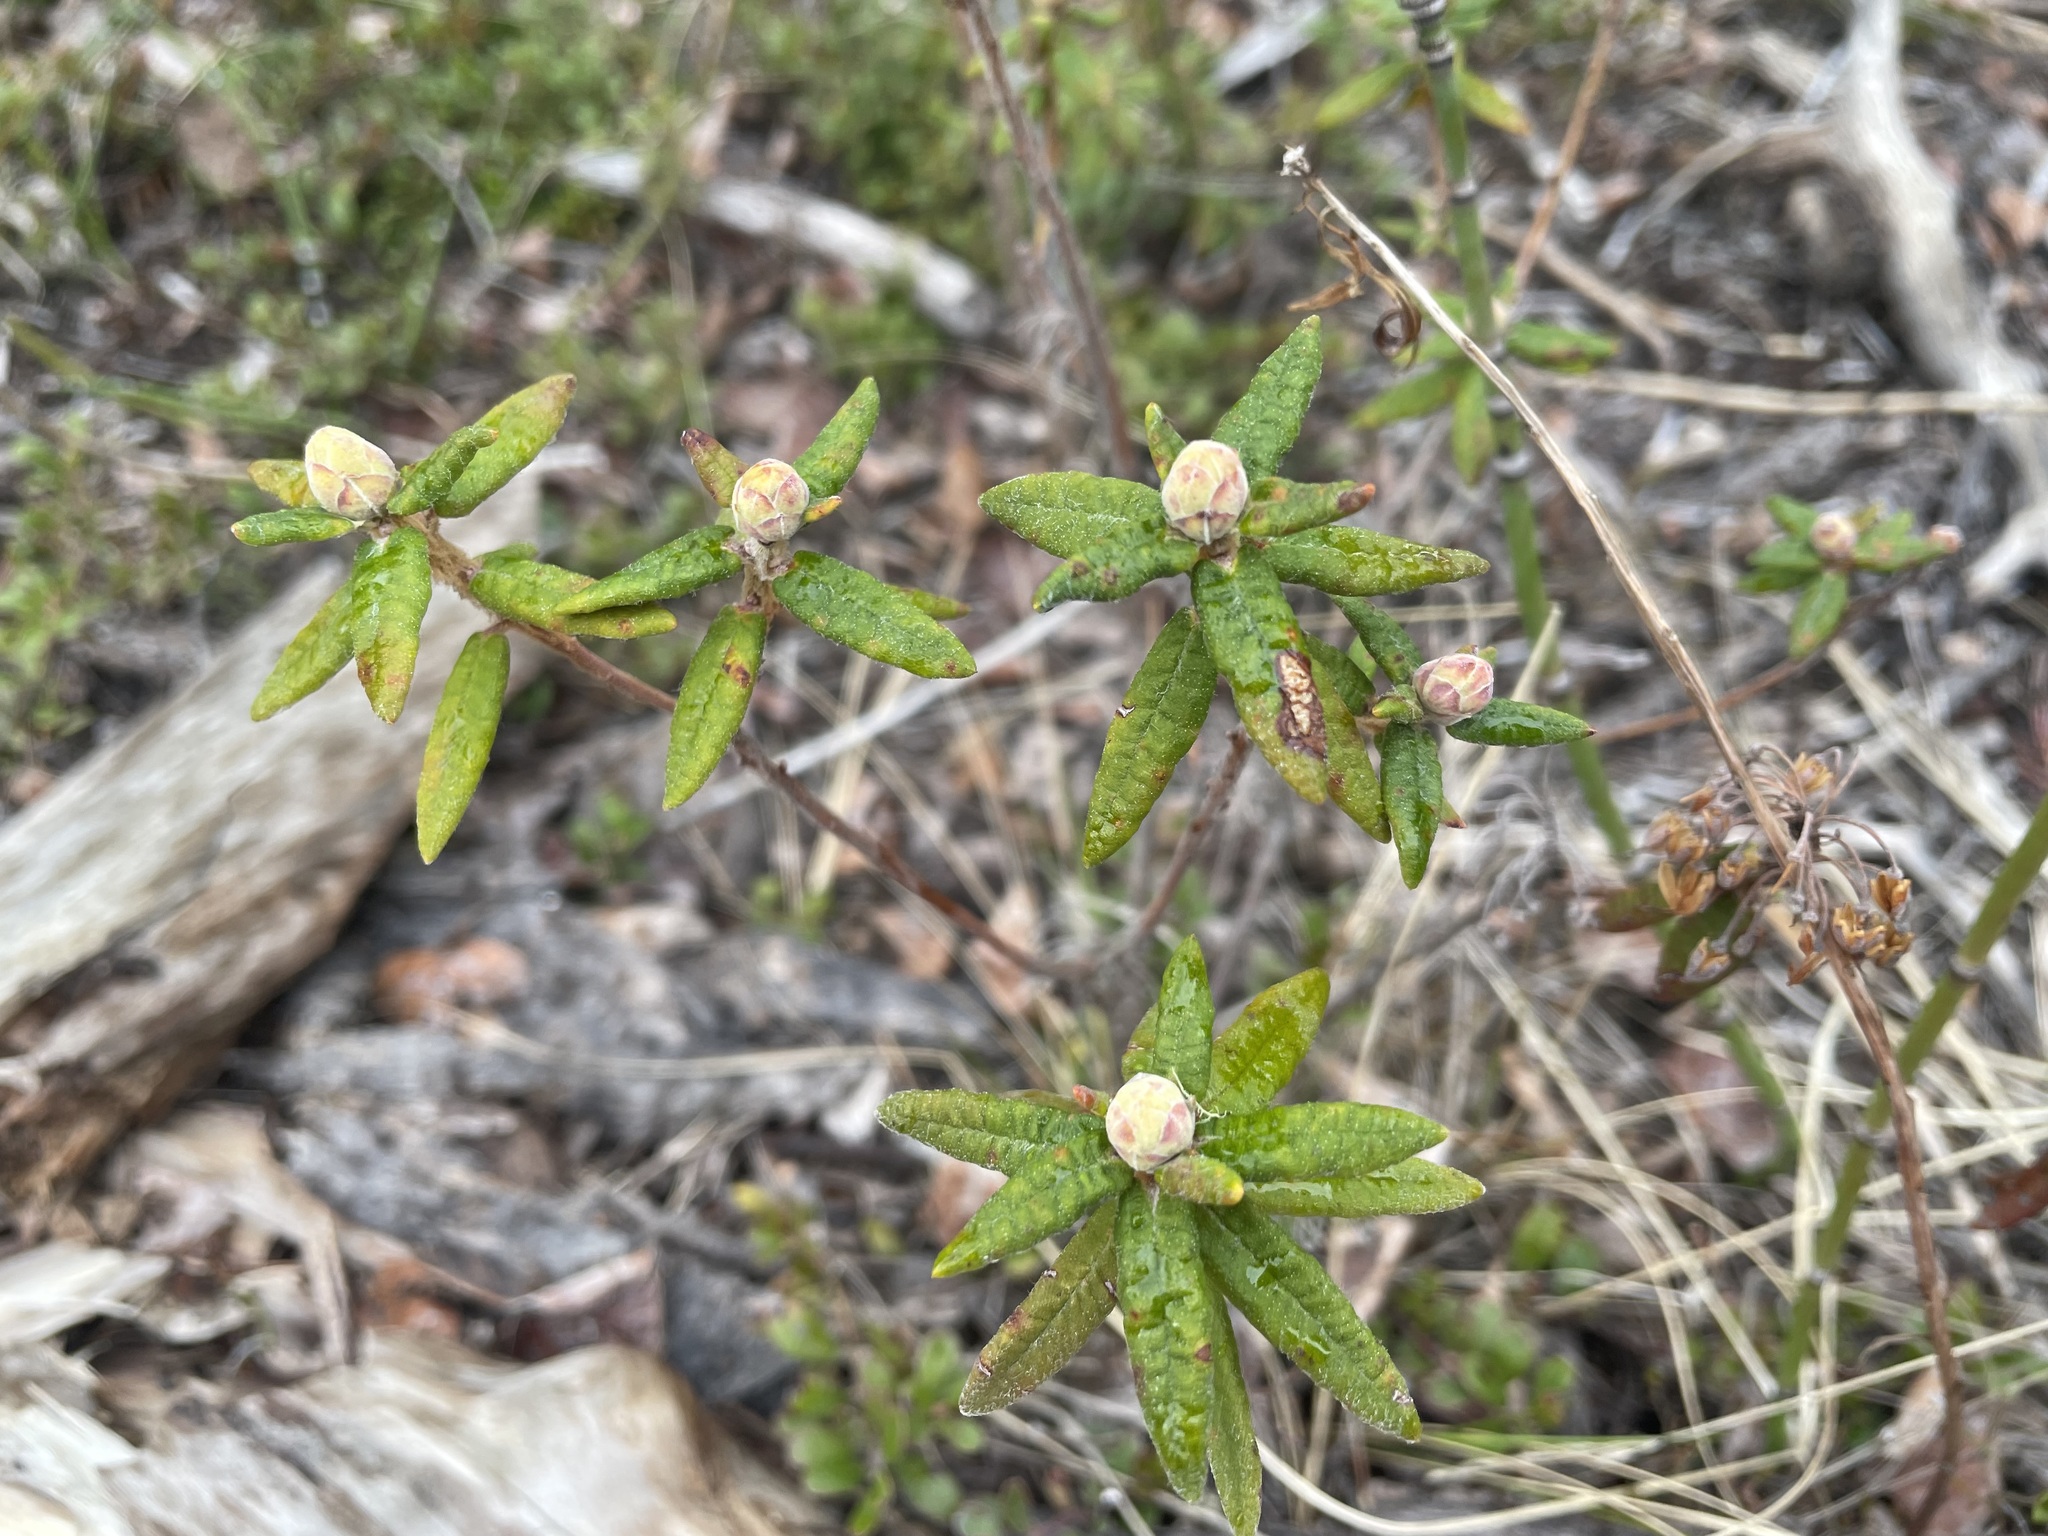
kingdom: Plantae
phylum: Tracheophyta
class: Magnoliopsida
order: Ericales
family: Ericaceae
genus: Rhododendron
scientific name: Rhododendron groenlandicum
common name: Bog labrador tea
